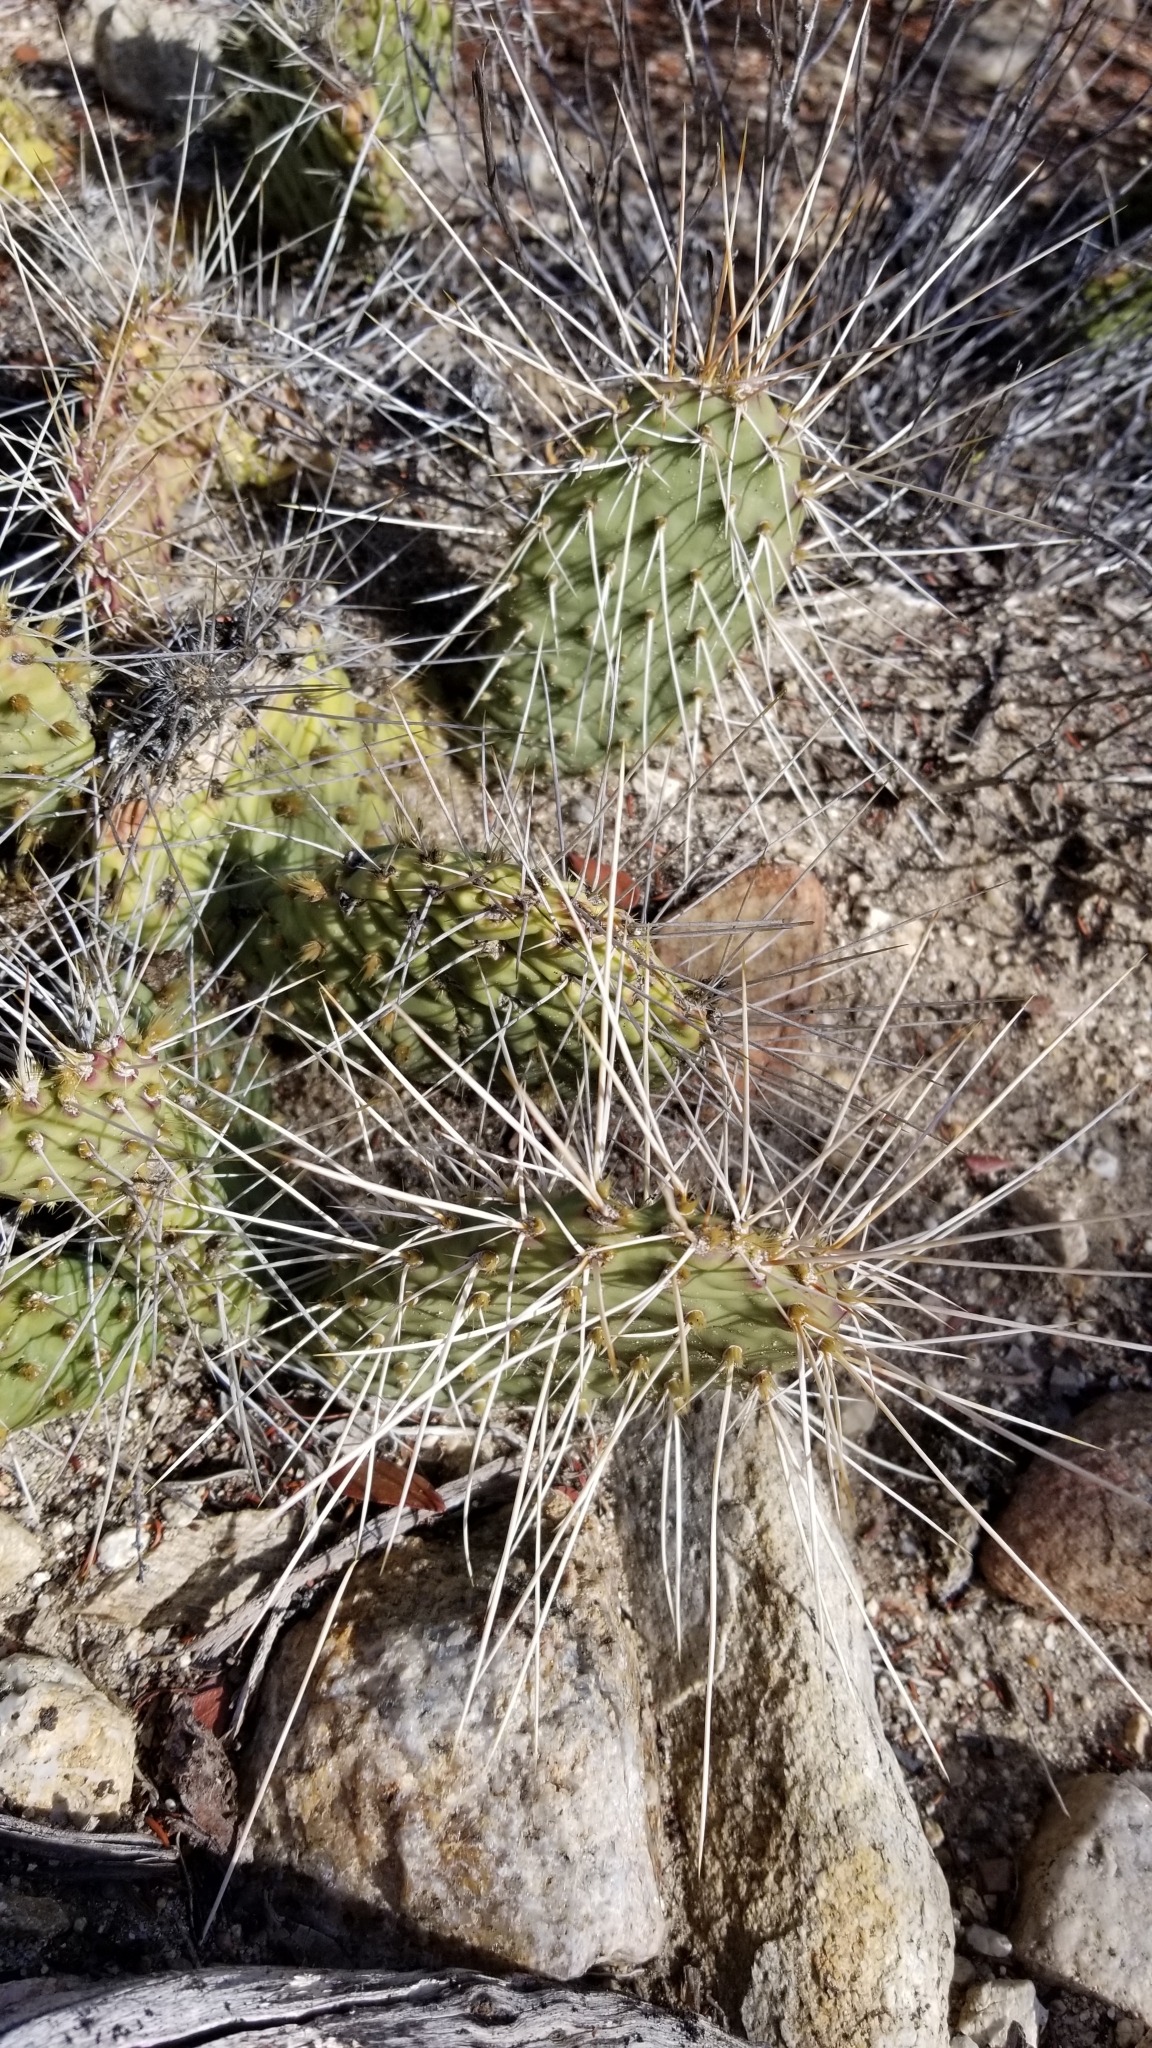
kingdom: Plantae
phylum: Tracheophyta
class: Magnoliopsida
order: Caryophyllales
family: Cactaceae
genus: Opuntia
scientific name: Opuntia polyacantha
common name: Plains prickly-pear
